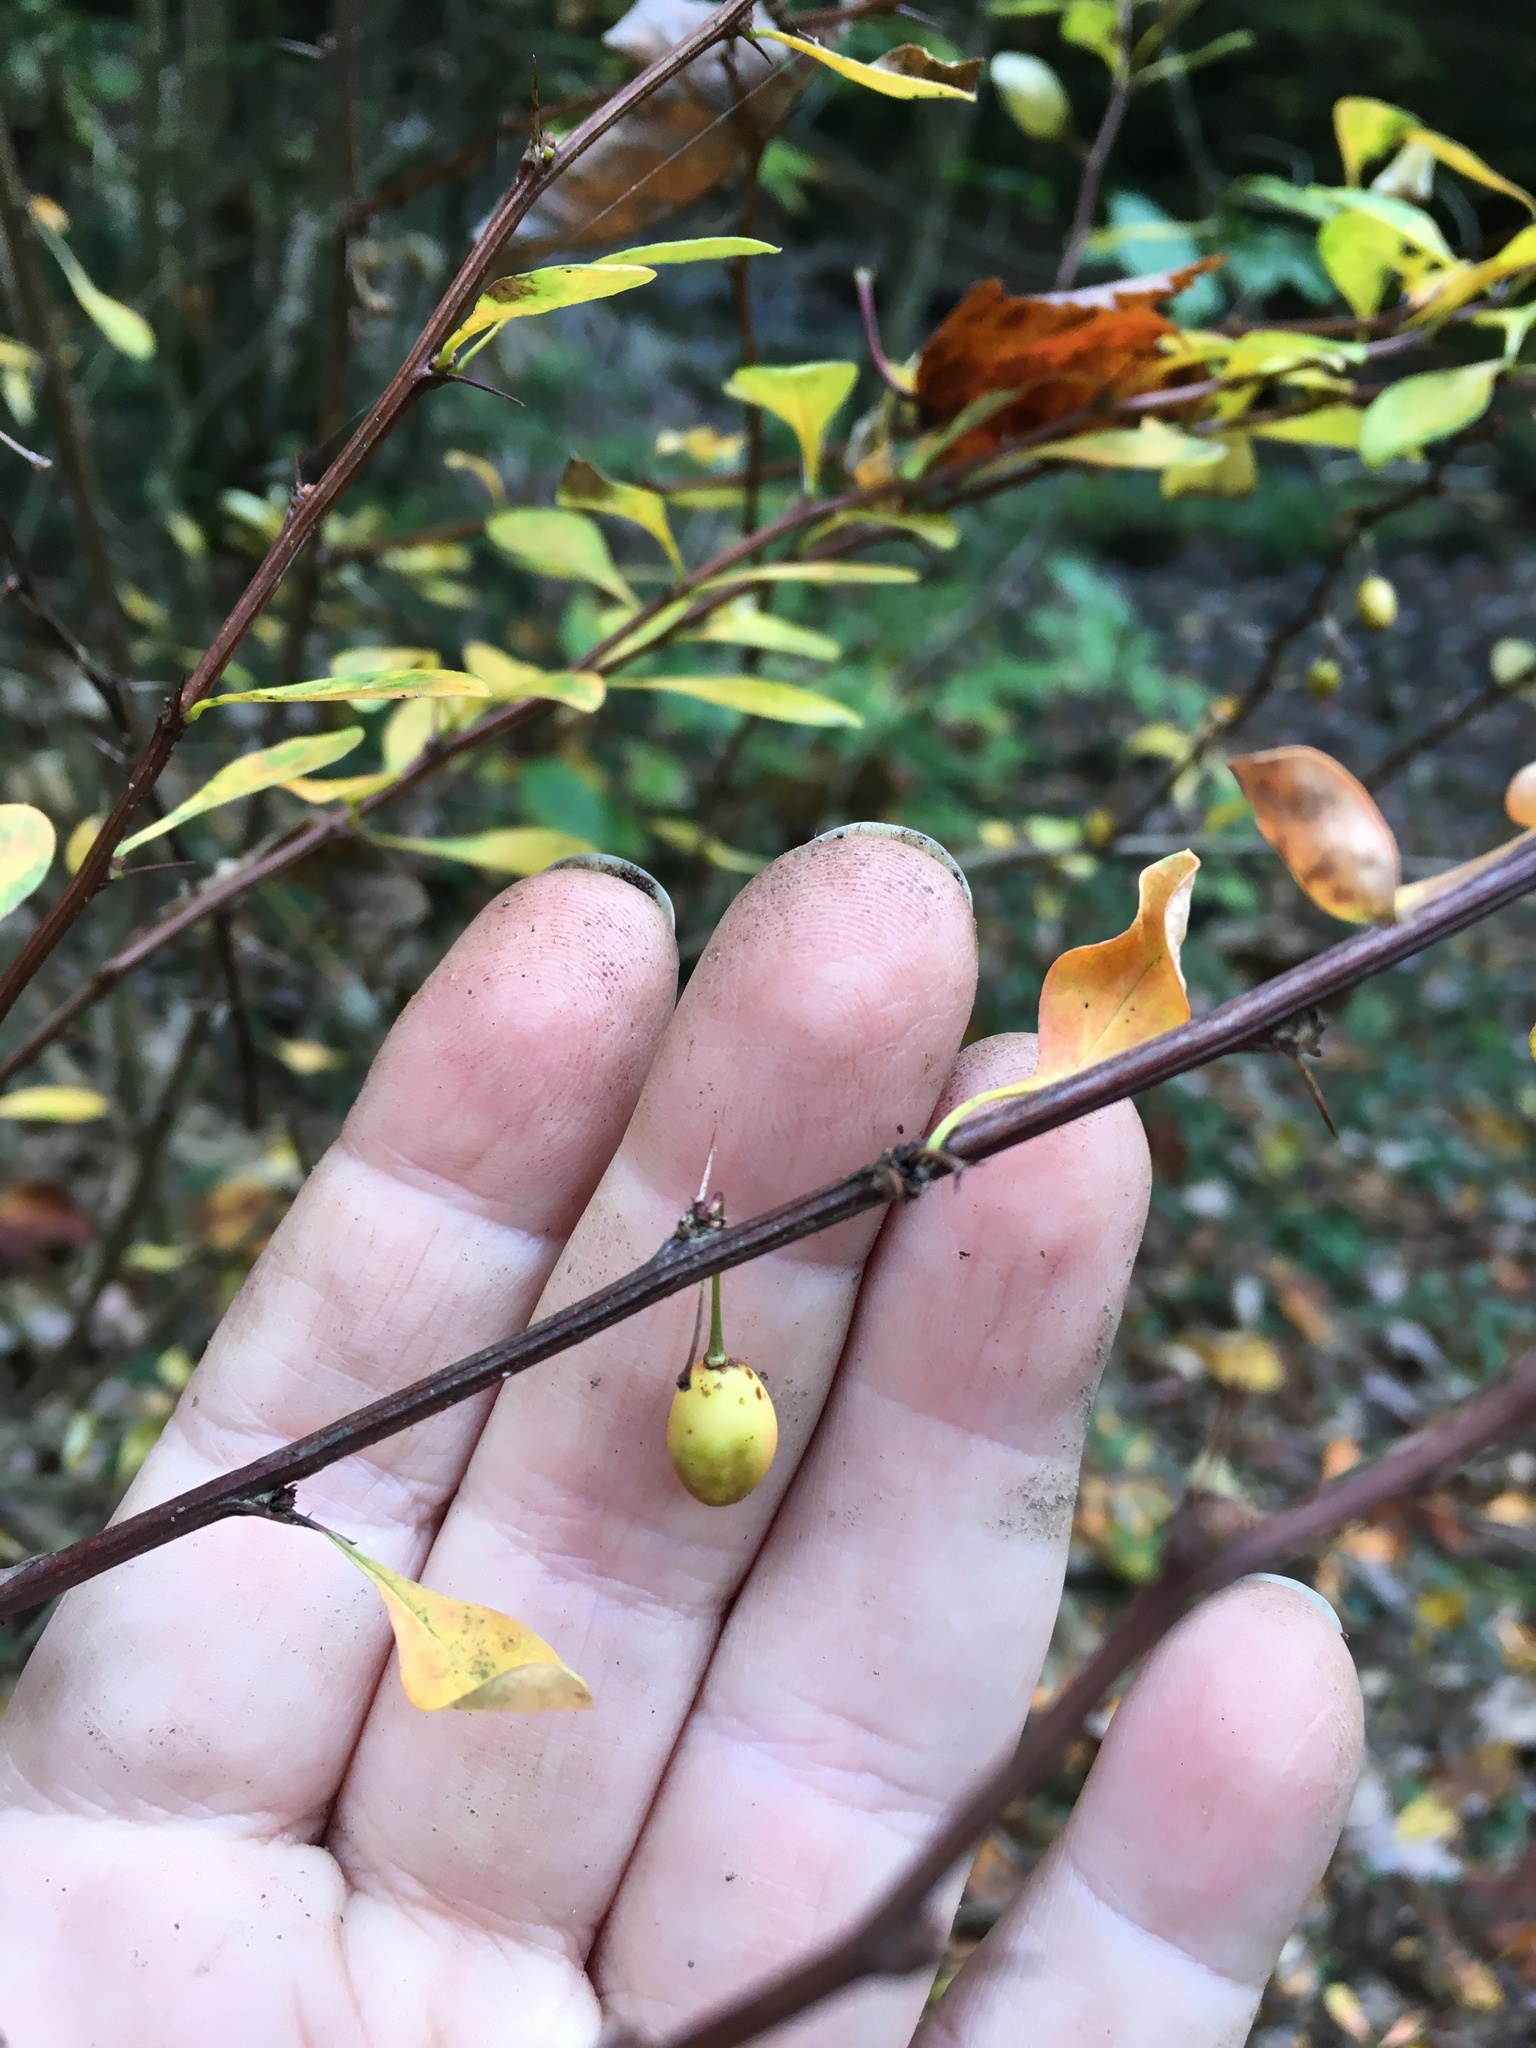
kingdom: Plantae
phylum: Tracheophyta
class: Magnoliopsida
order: Ranunculales
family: Berberidaceae
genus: Berberis
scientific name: Berberis thunbergii
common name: Japanese barberry
